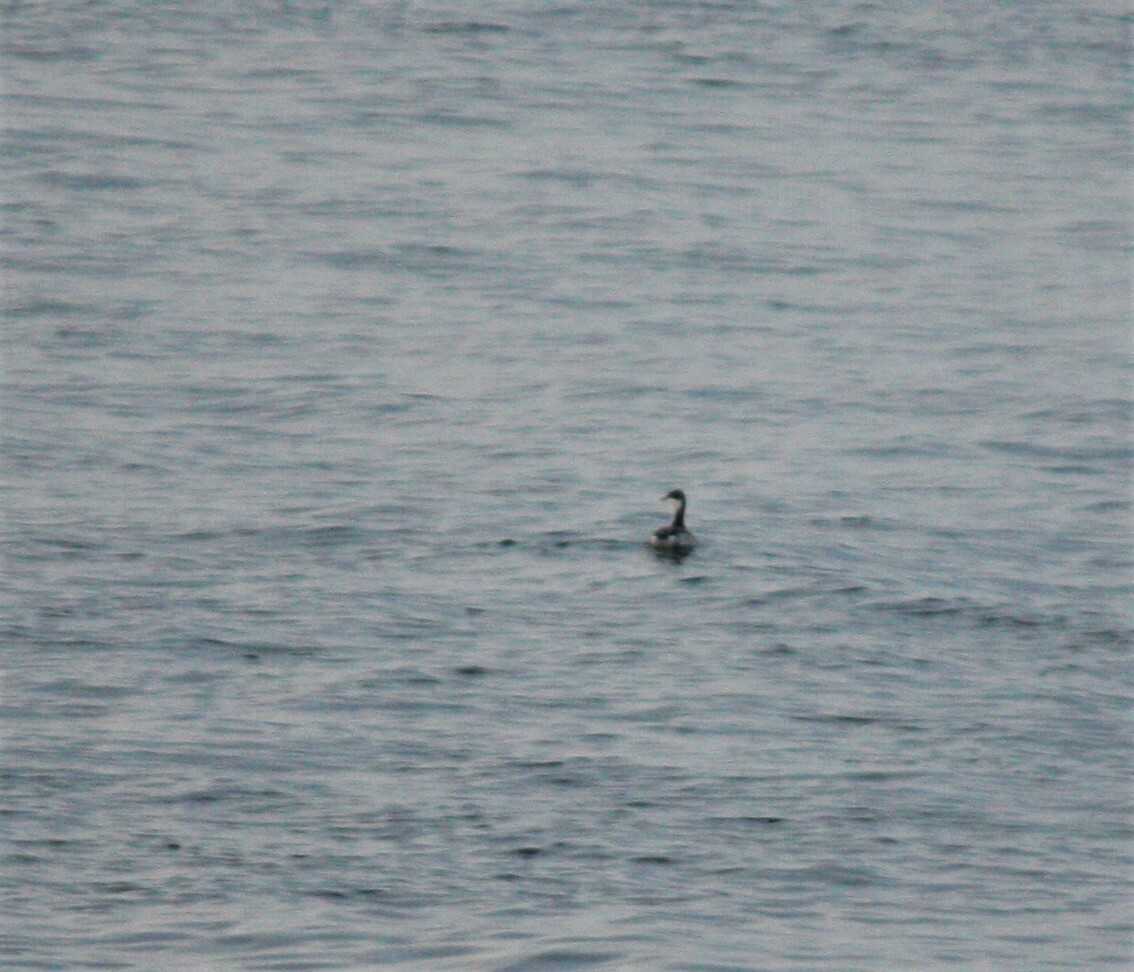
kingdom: Animalia
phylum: Chordata
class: Aves
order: Podicipediformes
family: Podicipedidae
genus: Podiceps
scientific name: Podiceps auritus
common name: Horned grebe
